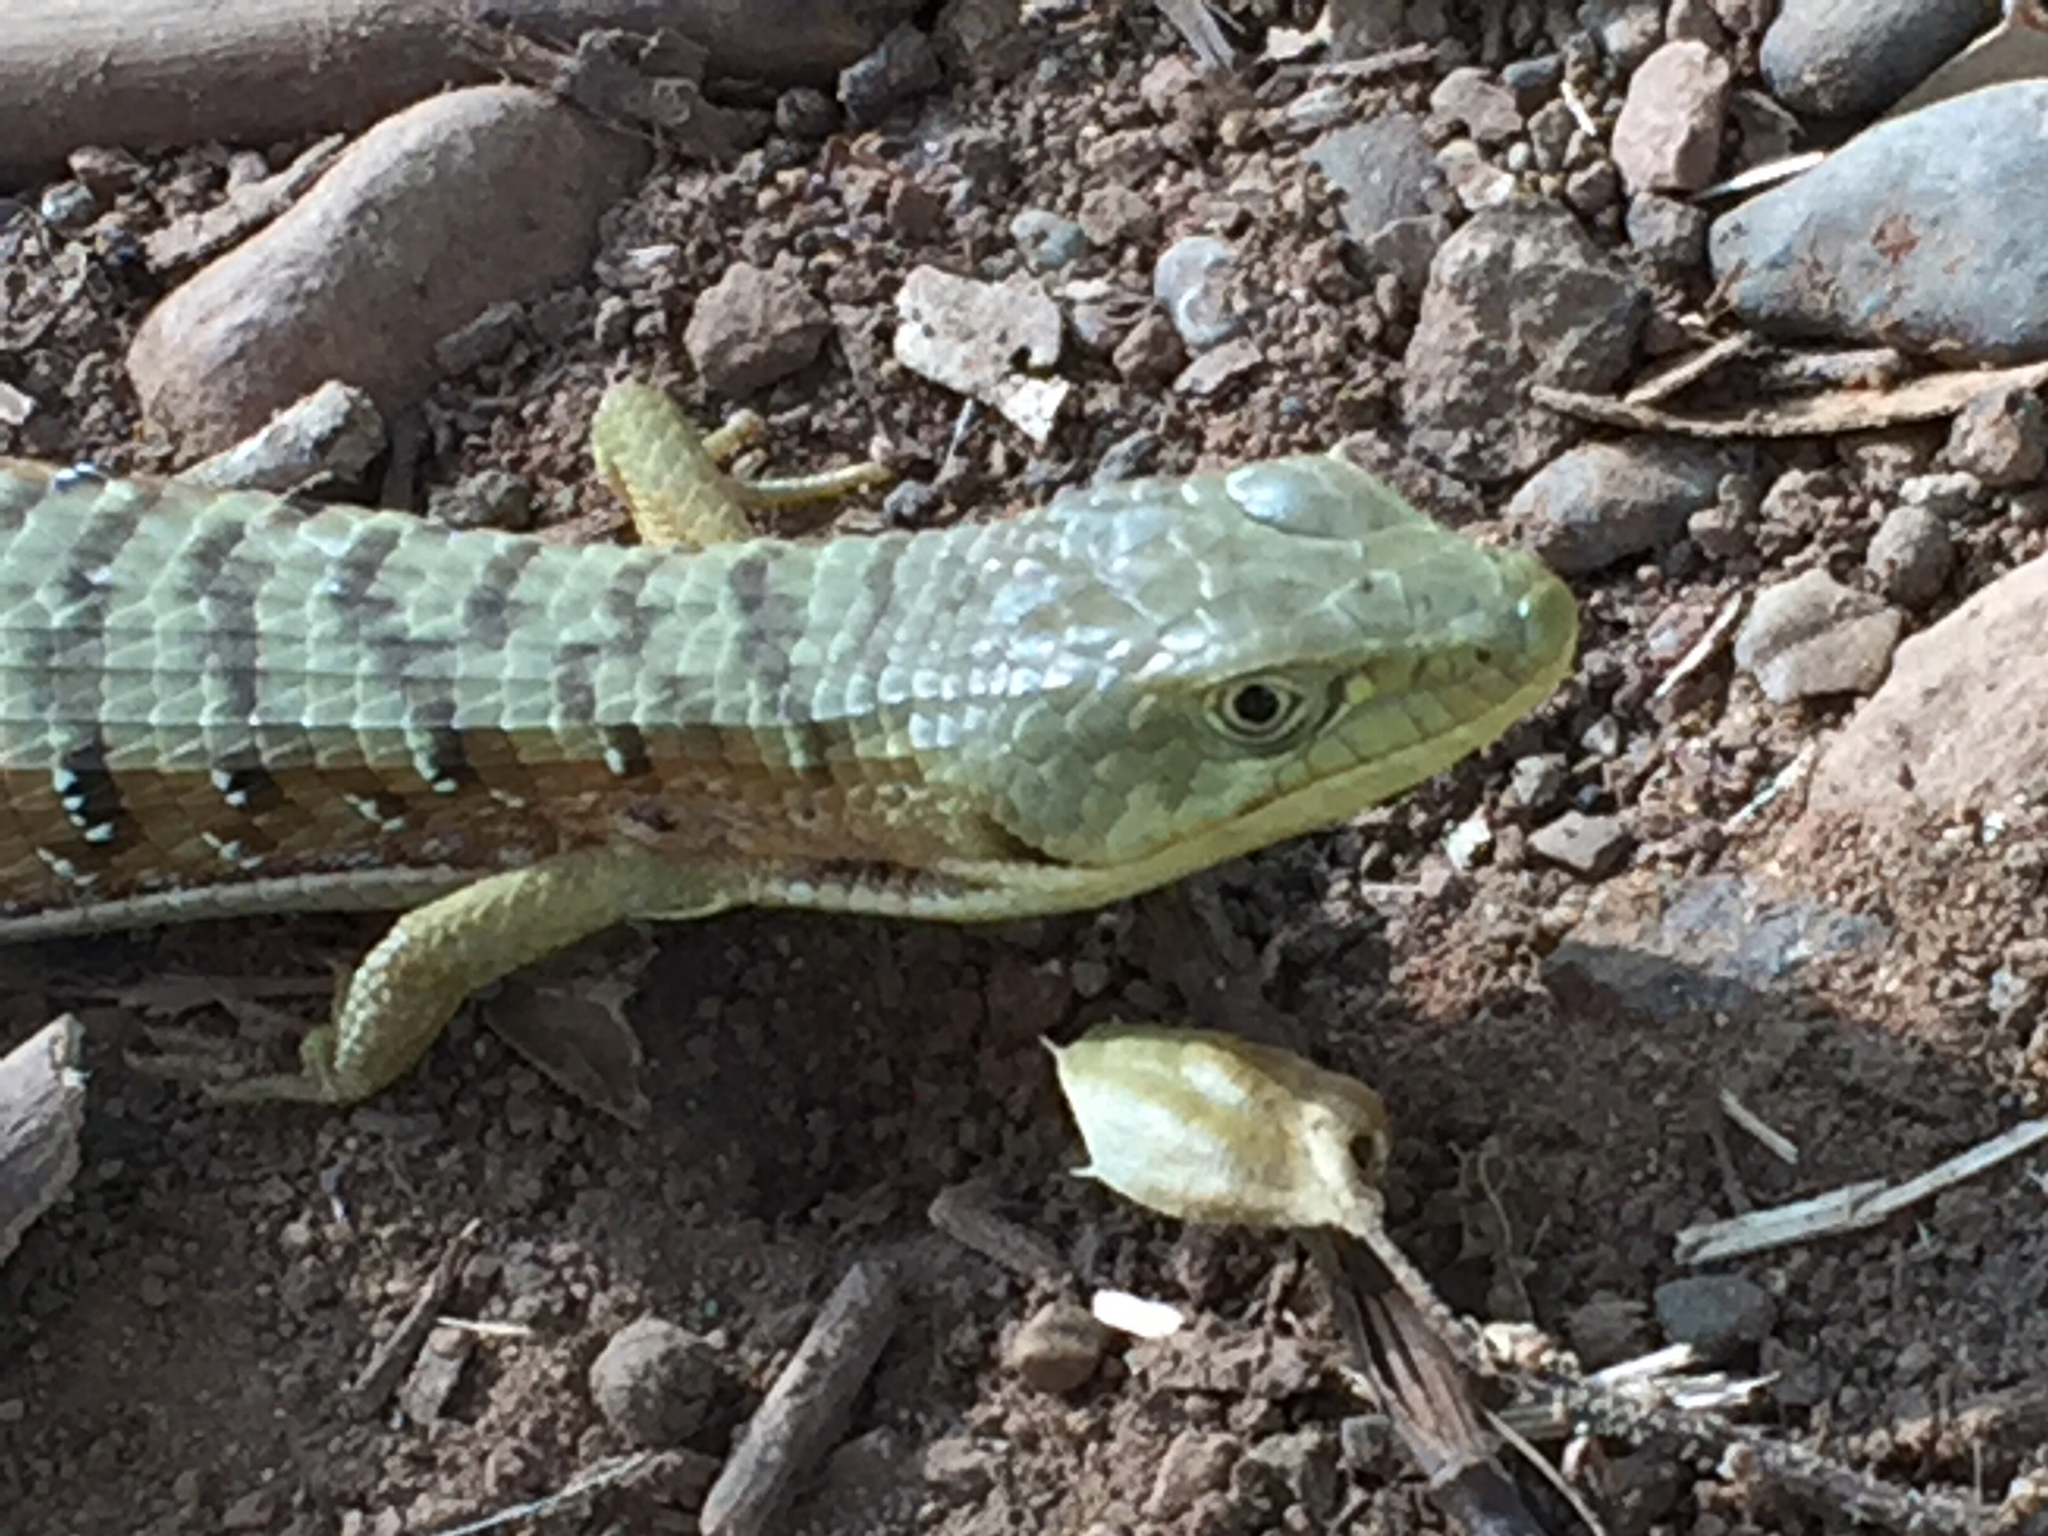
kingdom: Animalia
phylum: Chordata
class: Squamata
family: Anguidae
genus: Elgaria
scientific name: Elgaria multicarinata
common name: Southern alligator lizard
